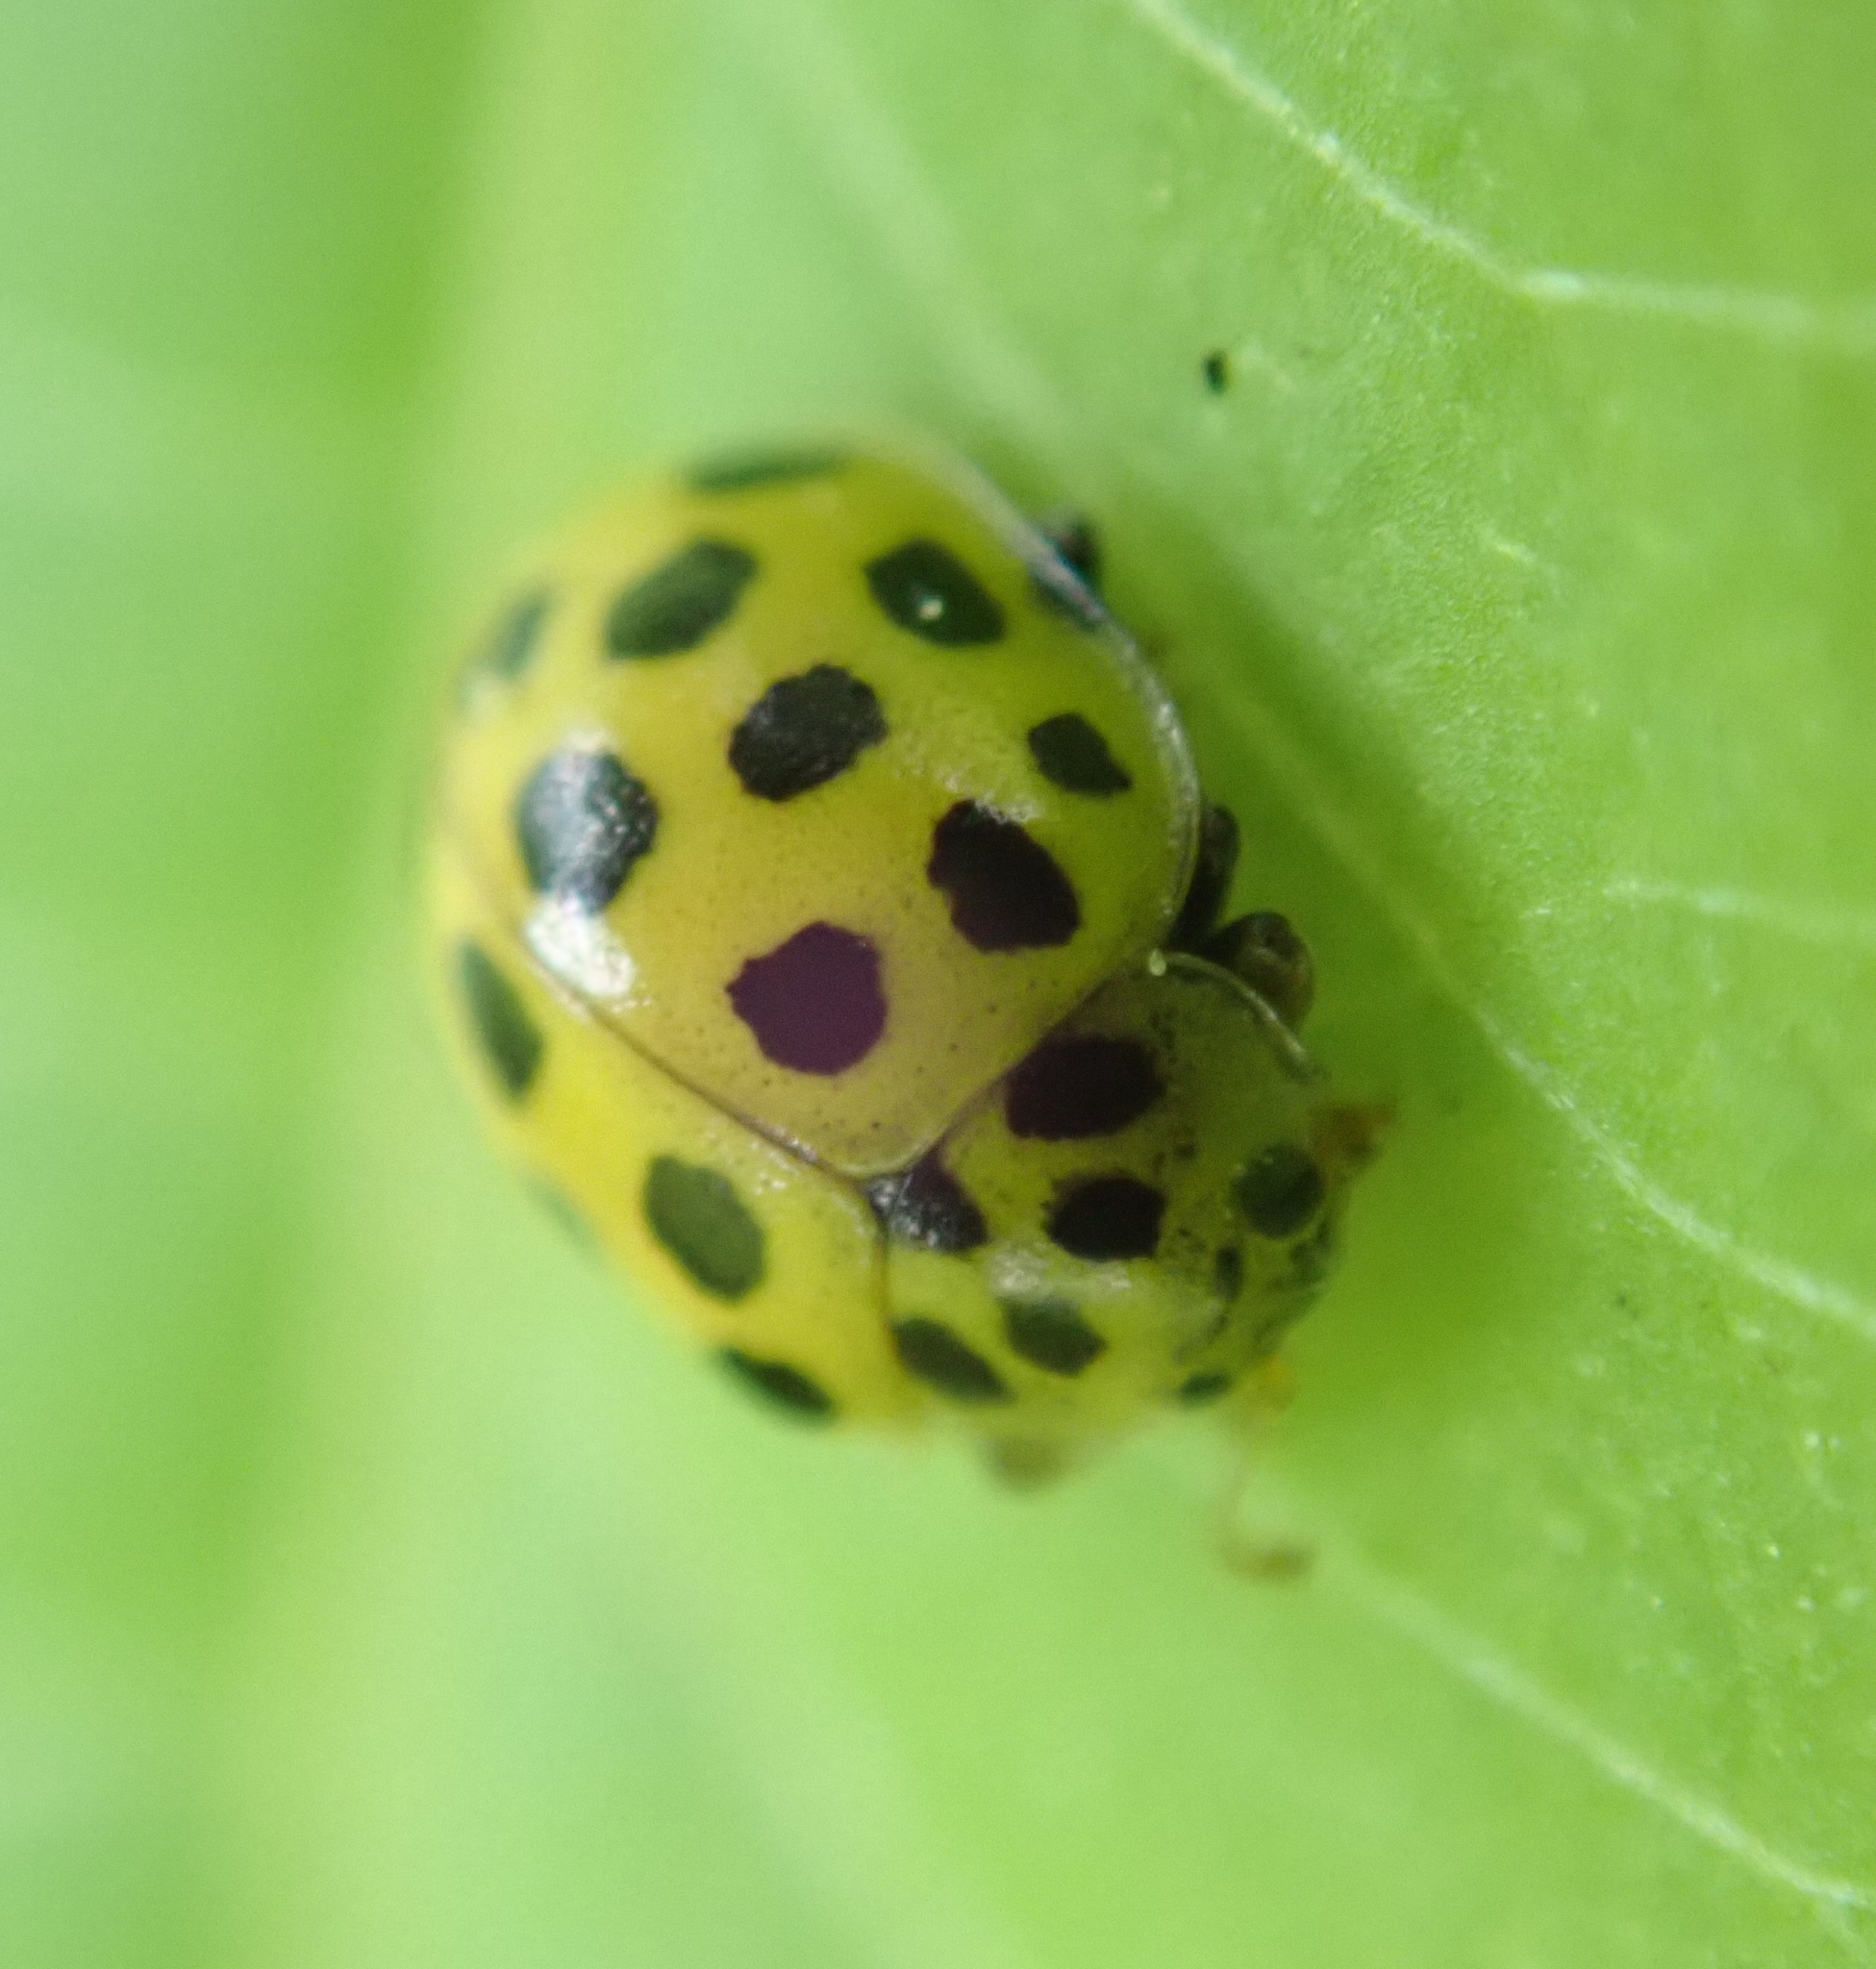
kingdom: Animalia
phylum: Arthropoda
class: Insecta
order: Coleoptera
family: Coccinellidae
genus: Psyllobora
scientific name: Psyllobora vigintiduopunctata
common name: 22-spot ladybird
